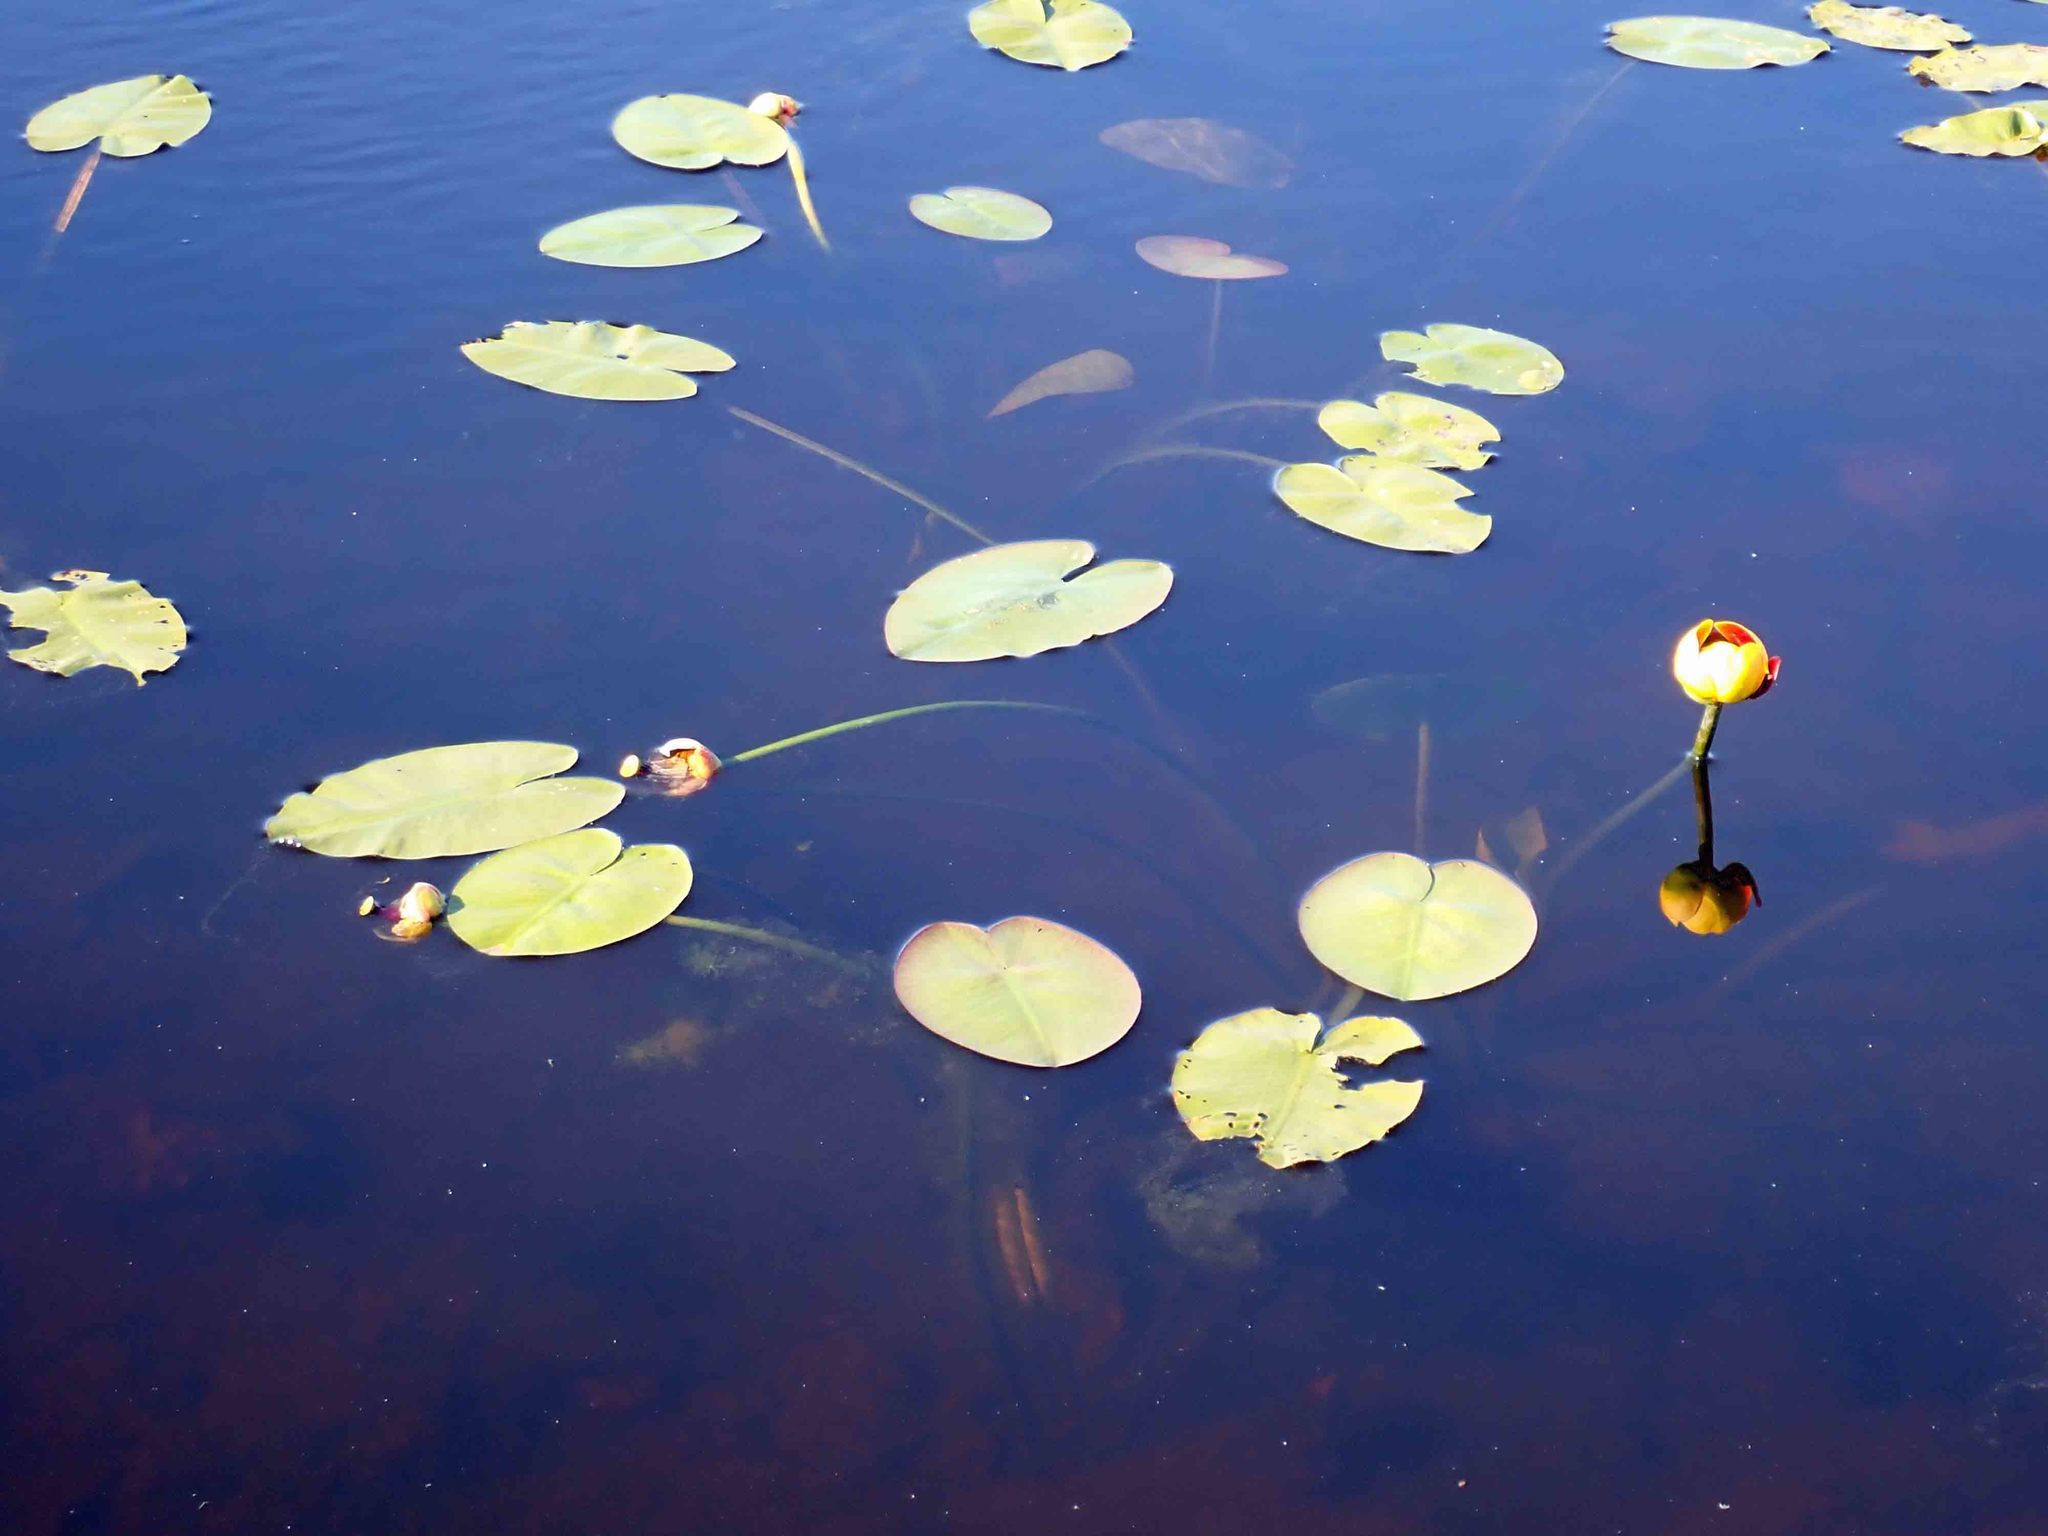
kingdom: Plantae
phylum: Tracheophyta
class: Magnoliopsida
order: Nymphaeales
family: Nymphaeaceae
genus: Nuphar
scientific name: Nuphar variegata
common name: Beaver-root
